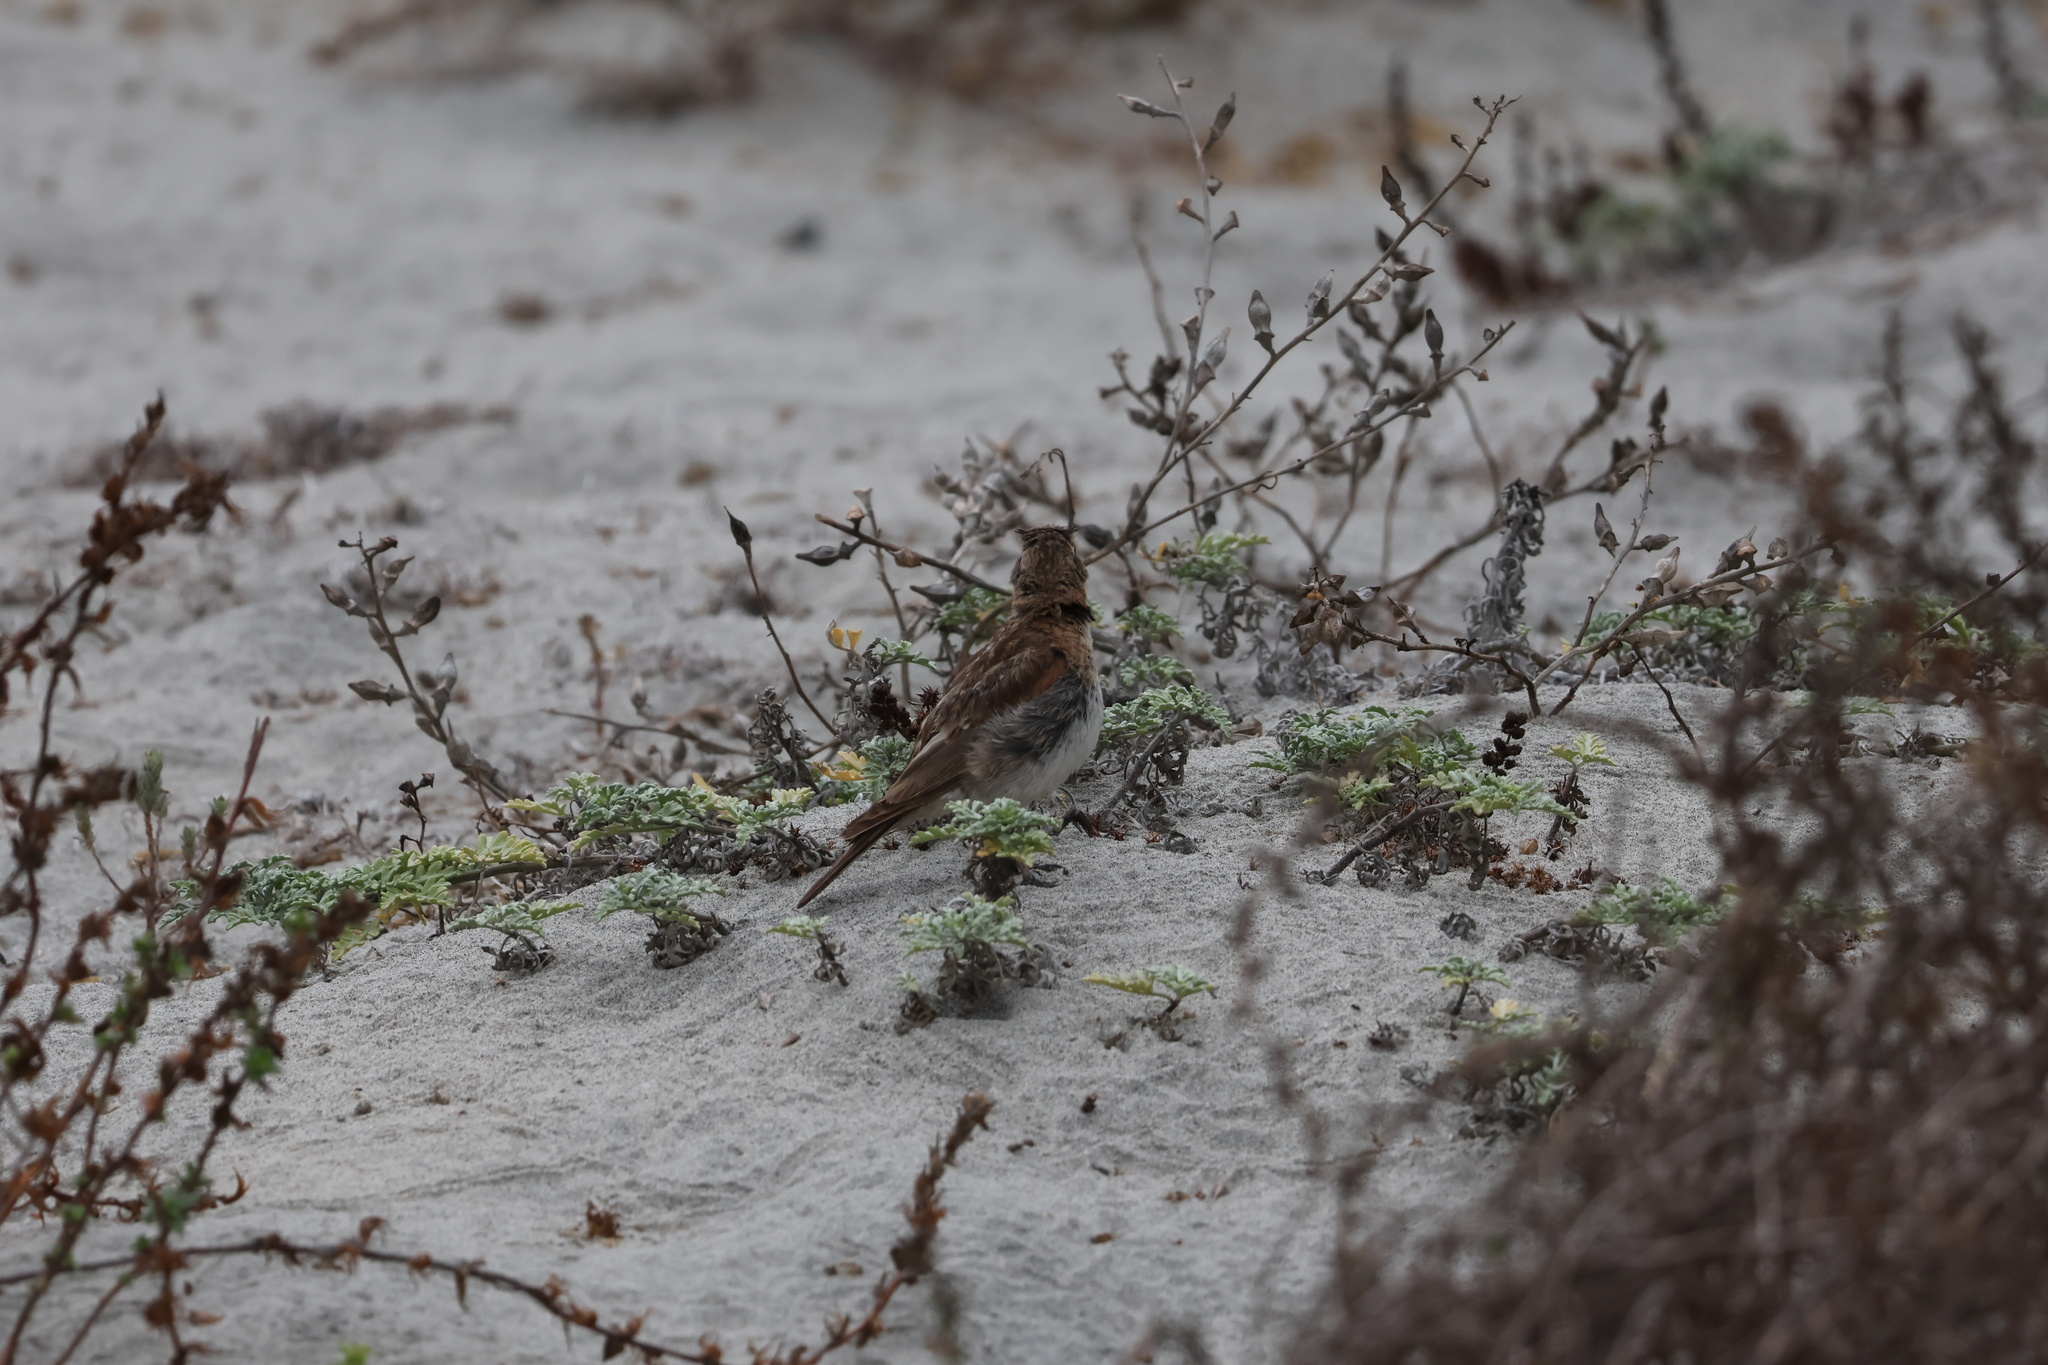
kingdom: Animalia
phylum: Chordata
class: Aves
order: Passeriformes
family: Alaudidae
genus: Eremophila
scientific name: Eremophila alpestris
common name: Horned lark
